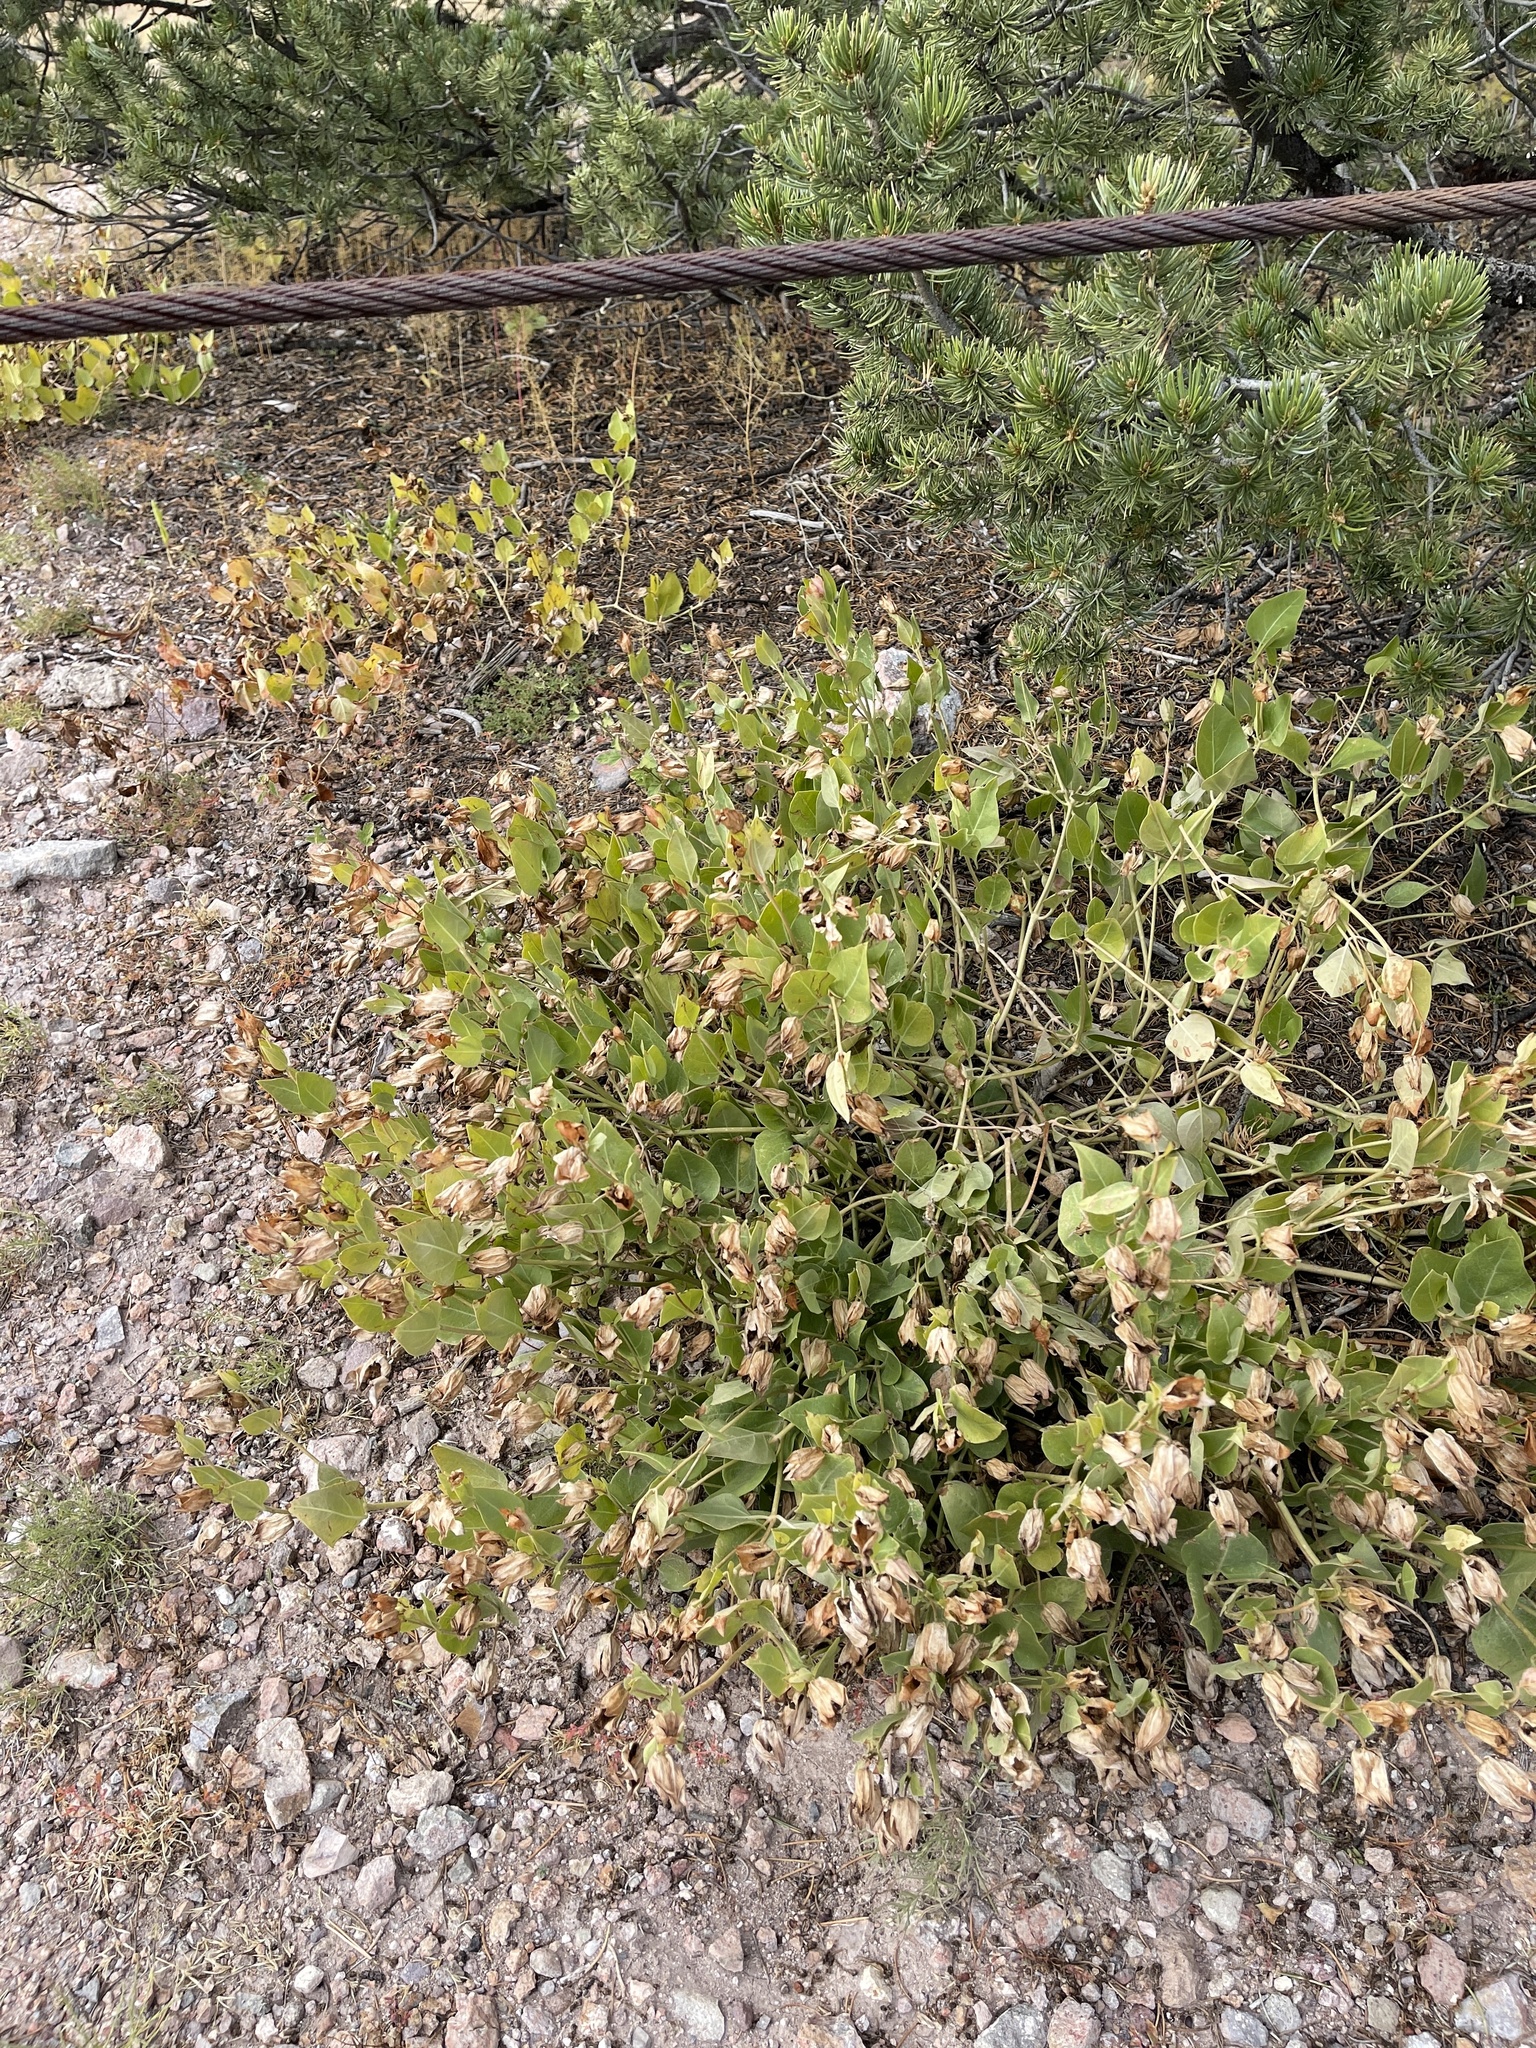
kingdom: Plantae
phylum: Tracheophyta
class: Magnoliopsida
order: Caryophyllales
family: Nyctaginaceae
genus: Mirabilis
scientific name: Mirabilis multiflora
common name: Froebel's four-o'clock
